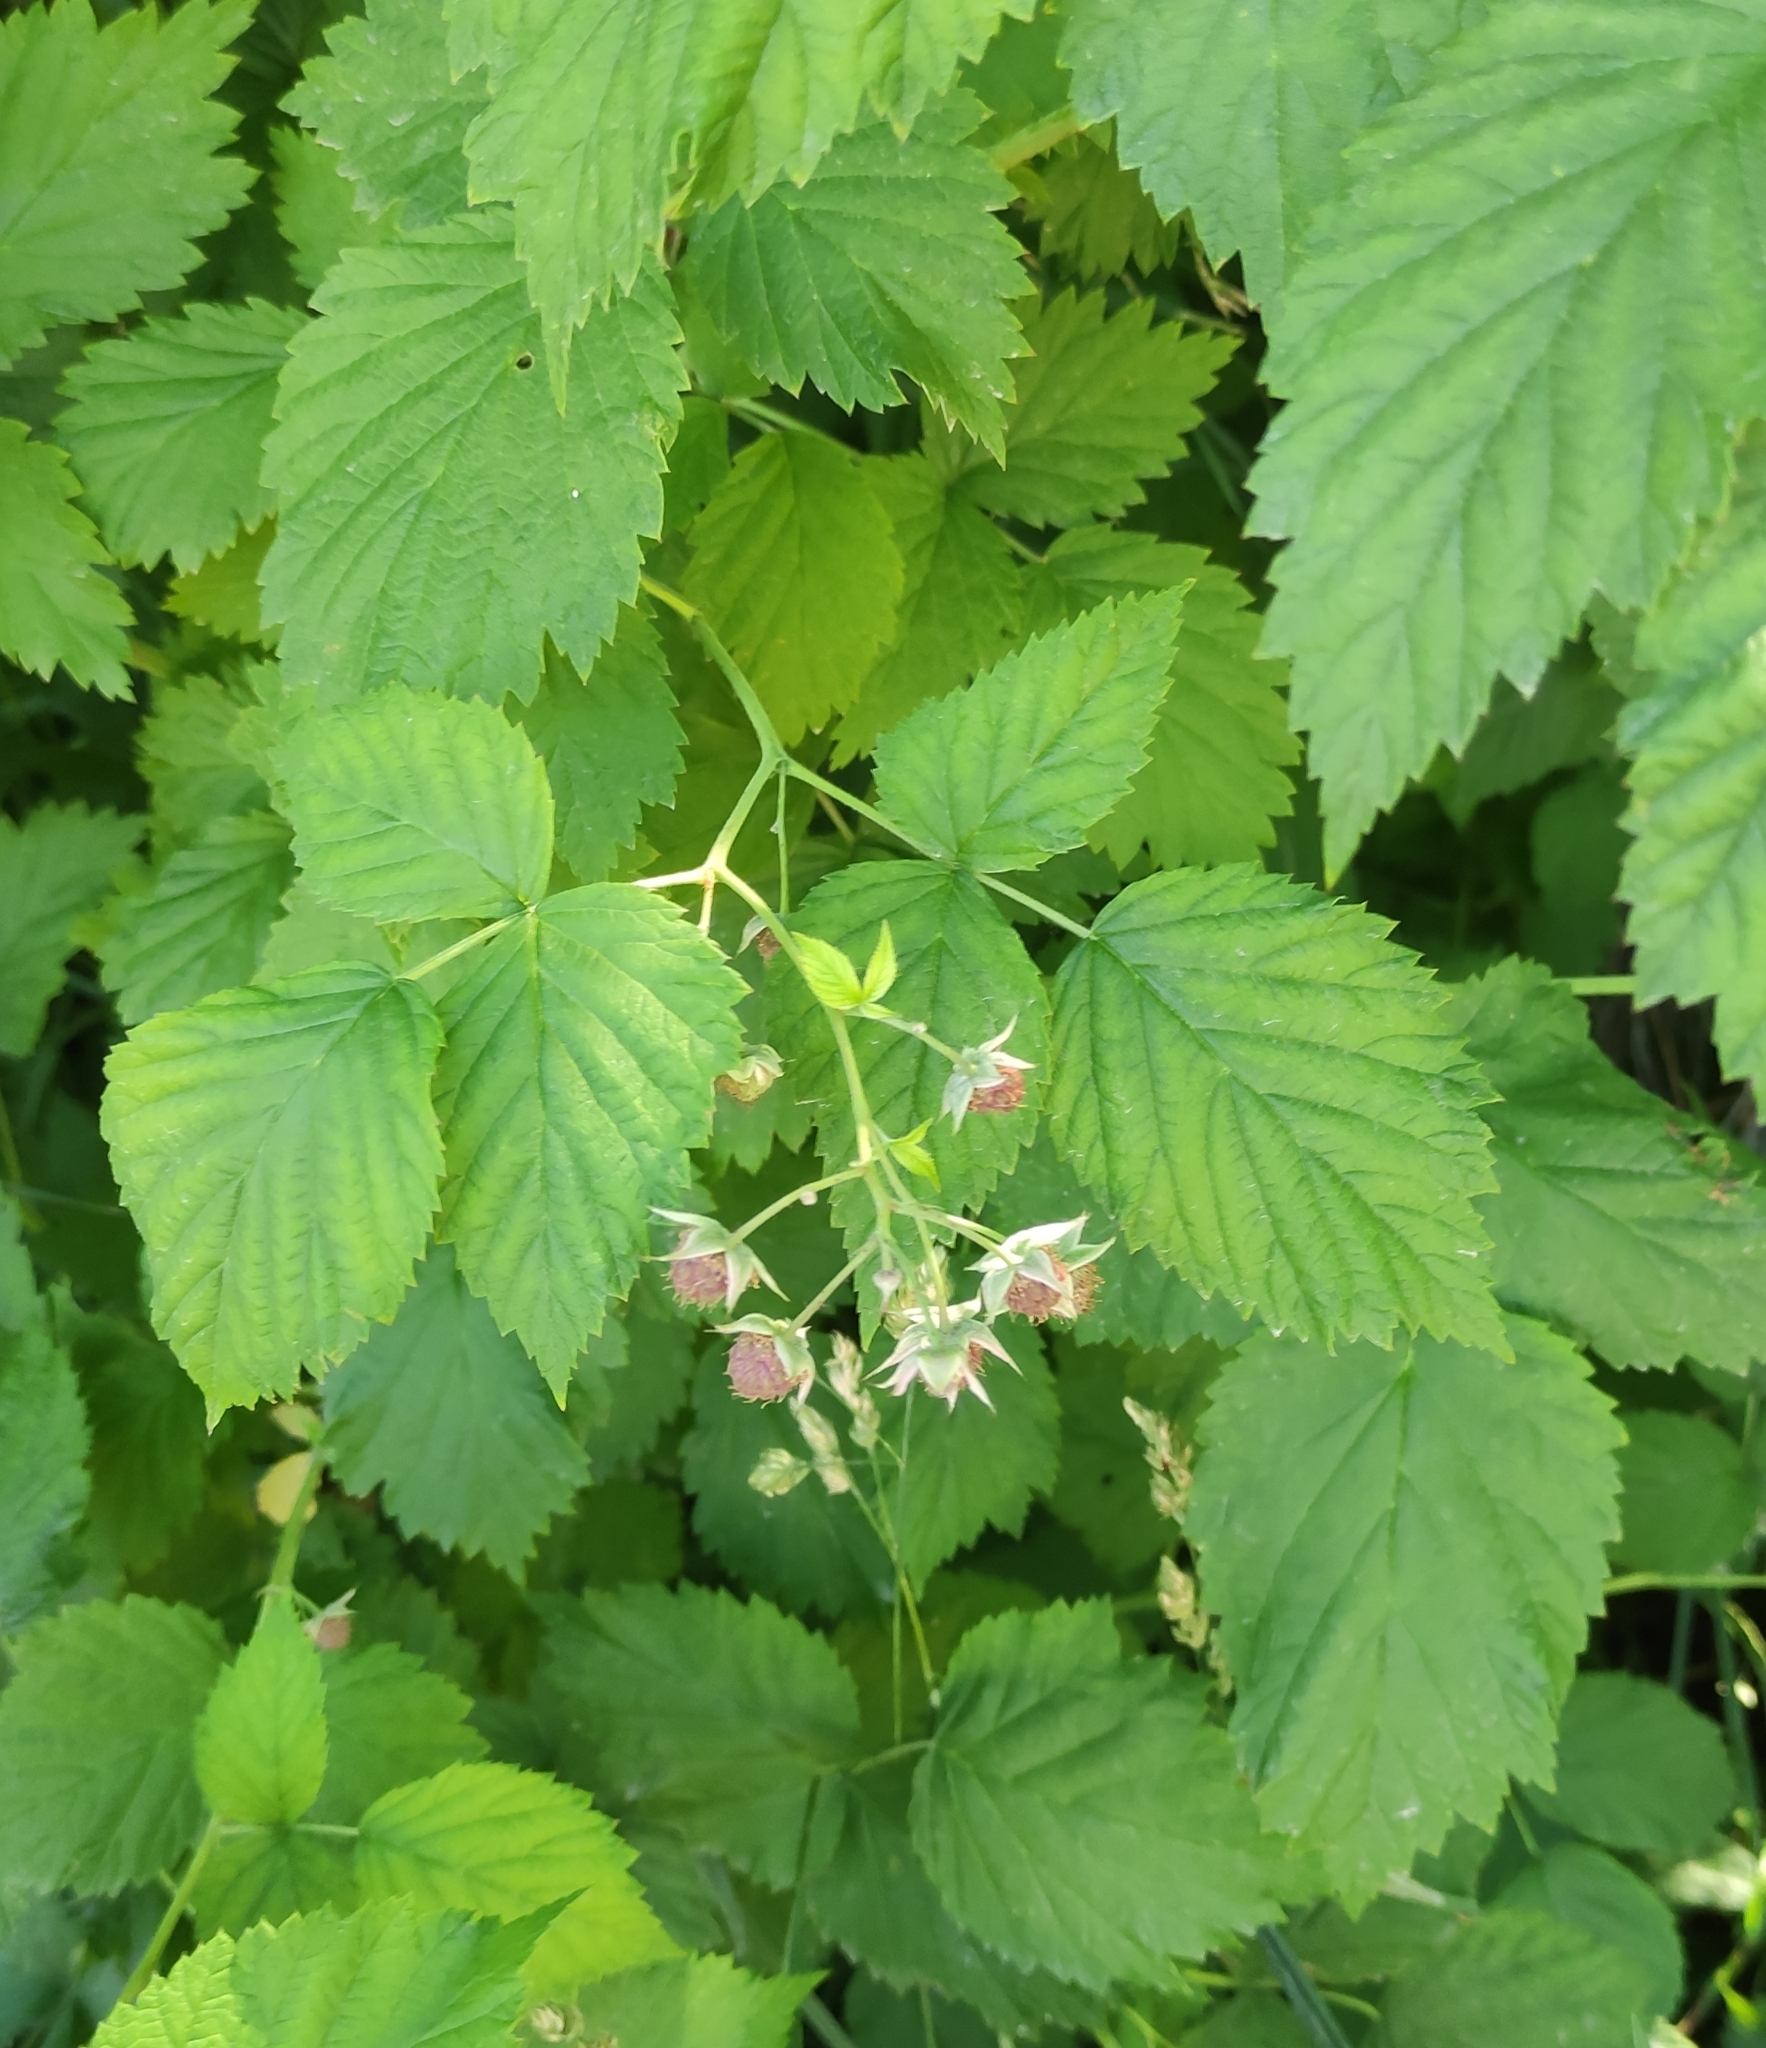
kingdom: Plantae
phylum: Tracheophyta
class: Magnoliopsida
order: Rosales
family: Rosaceae
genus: Rubus
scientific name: Rubus idaeus
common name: Raspberry
